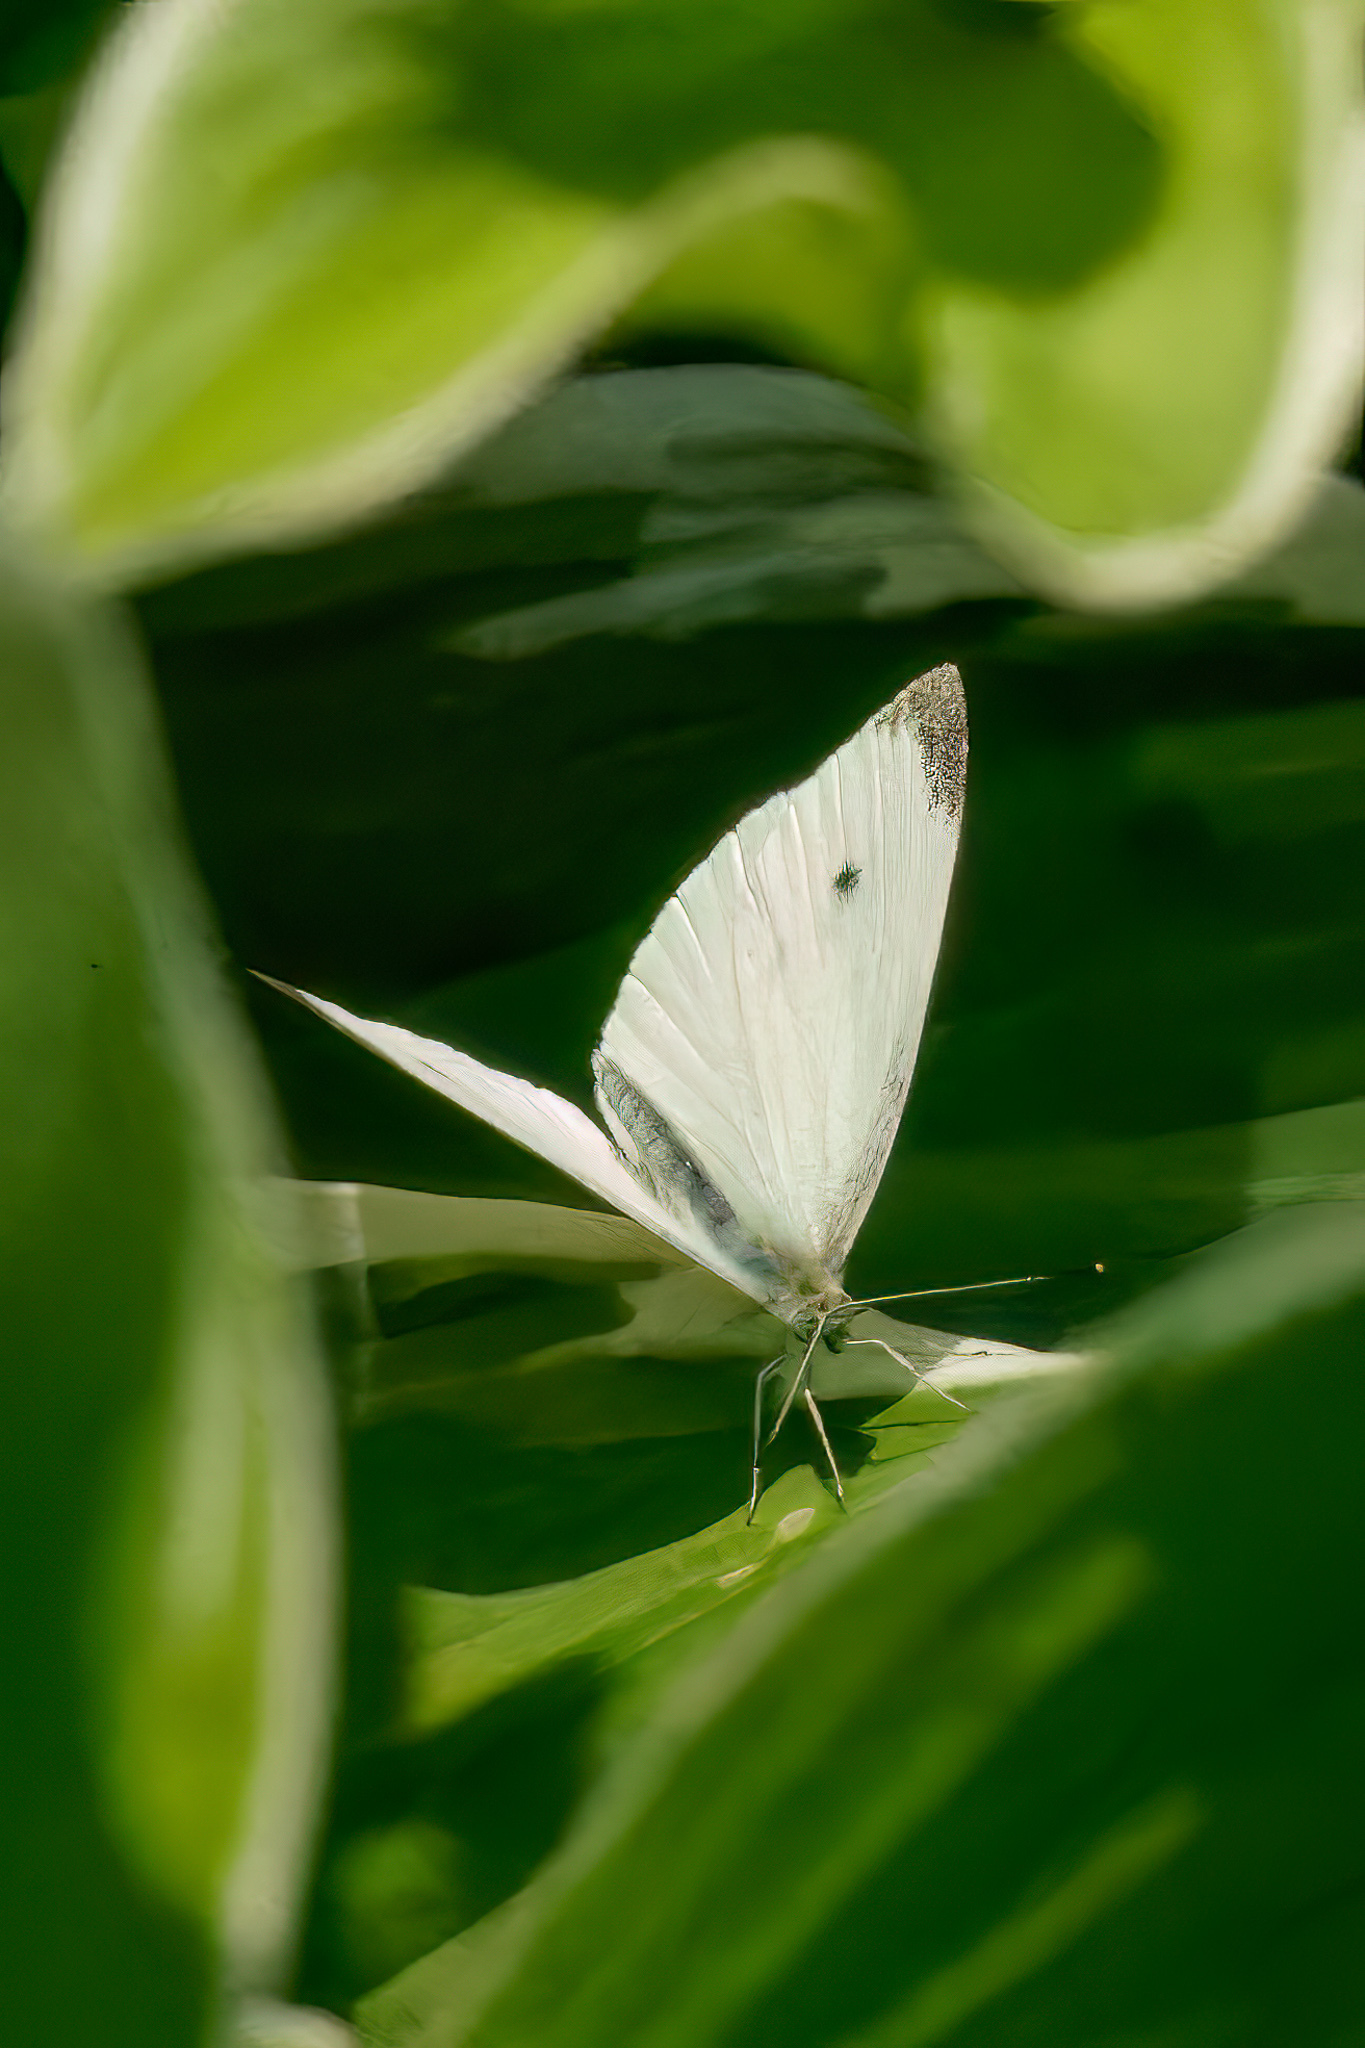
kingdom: Animalia
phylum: Arthropoda
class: Insecta
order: Lepidoptera
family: Pieridae
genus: Pieris
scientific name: Pieris rapae
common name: Small white
